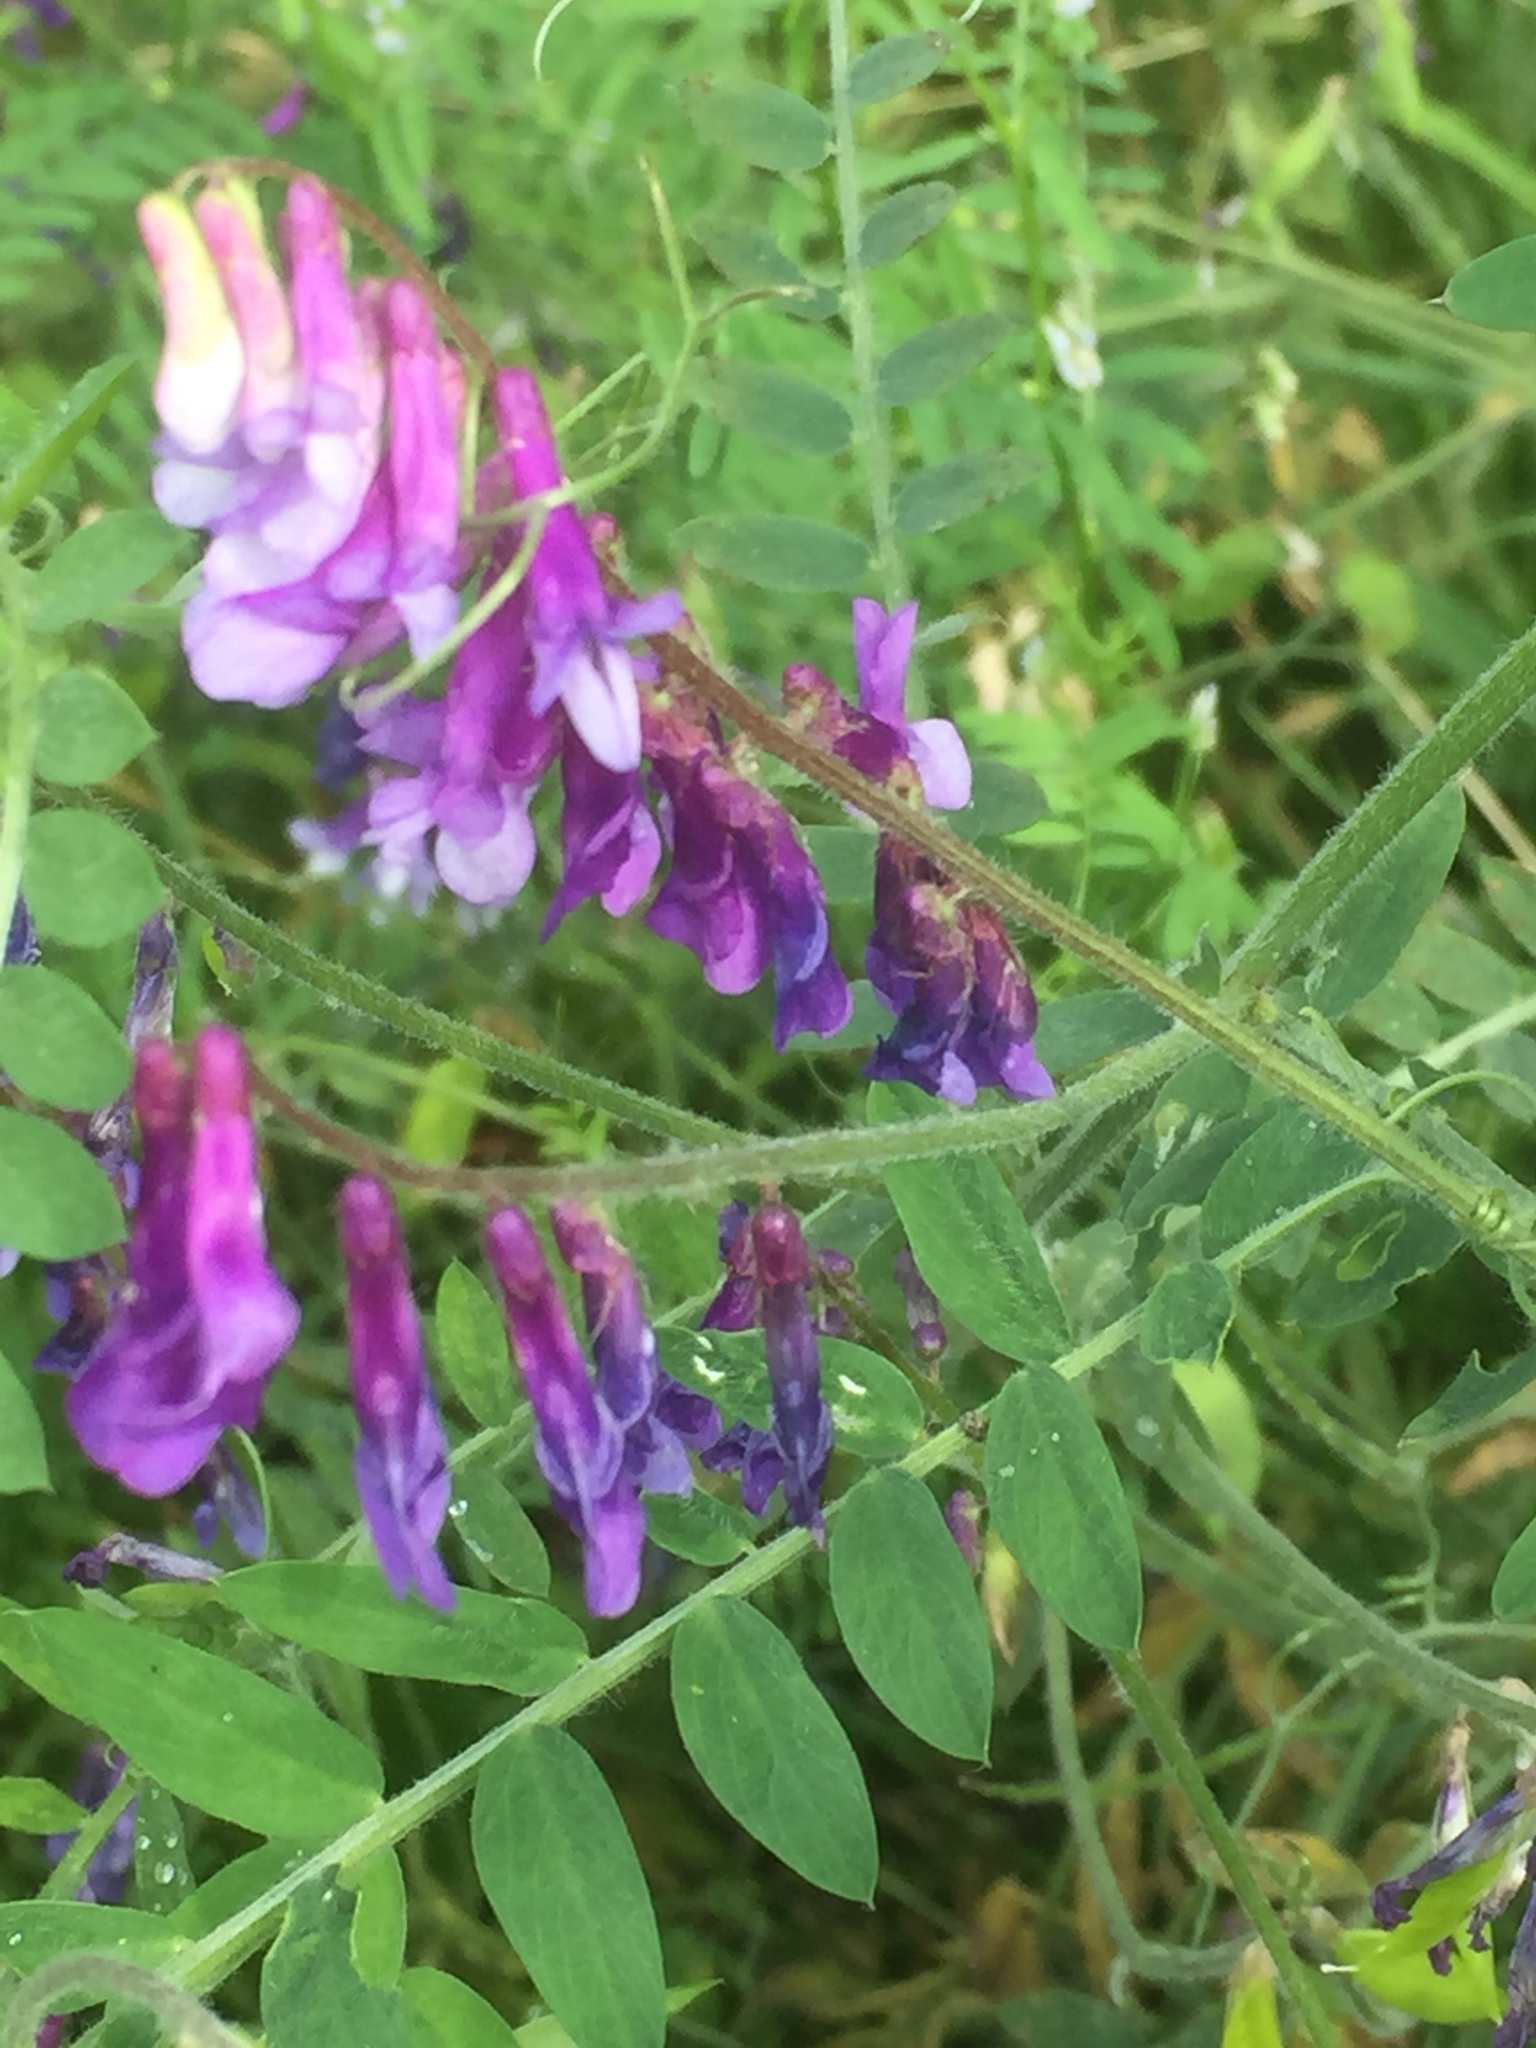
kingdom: Plantae
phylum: Tracheophyta
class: Magnoliopsida
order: Fabales
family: Fabaceae
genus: Vicia
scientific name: Vicia villosa
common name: Fodder vetch
